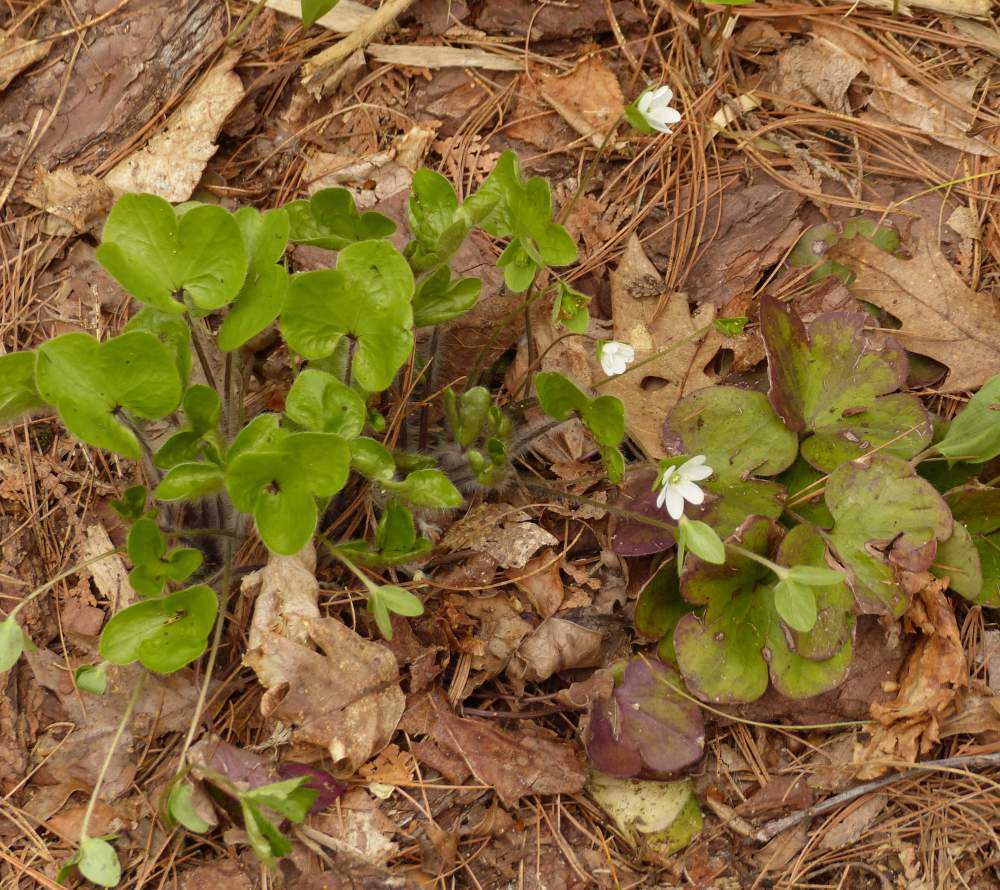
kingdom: Plantae
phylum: Tracheophyta
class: Magnoliopsida
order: Ranunculales
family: Ranunculaceae
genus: Hepatica
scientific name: Hepatica americana
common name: American hepatica
